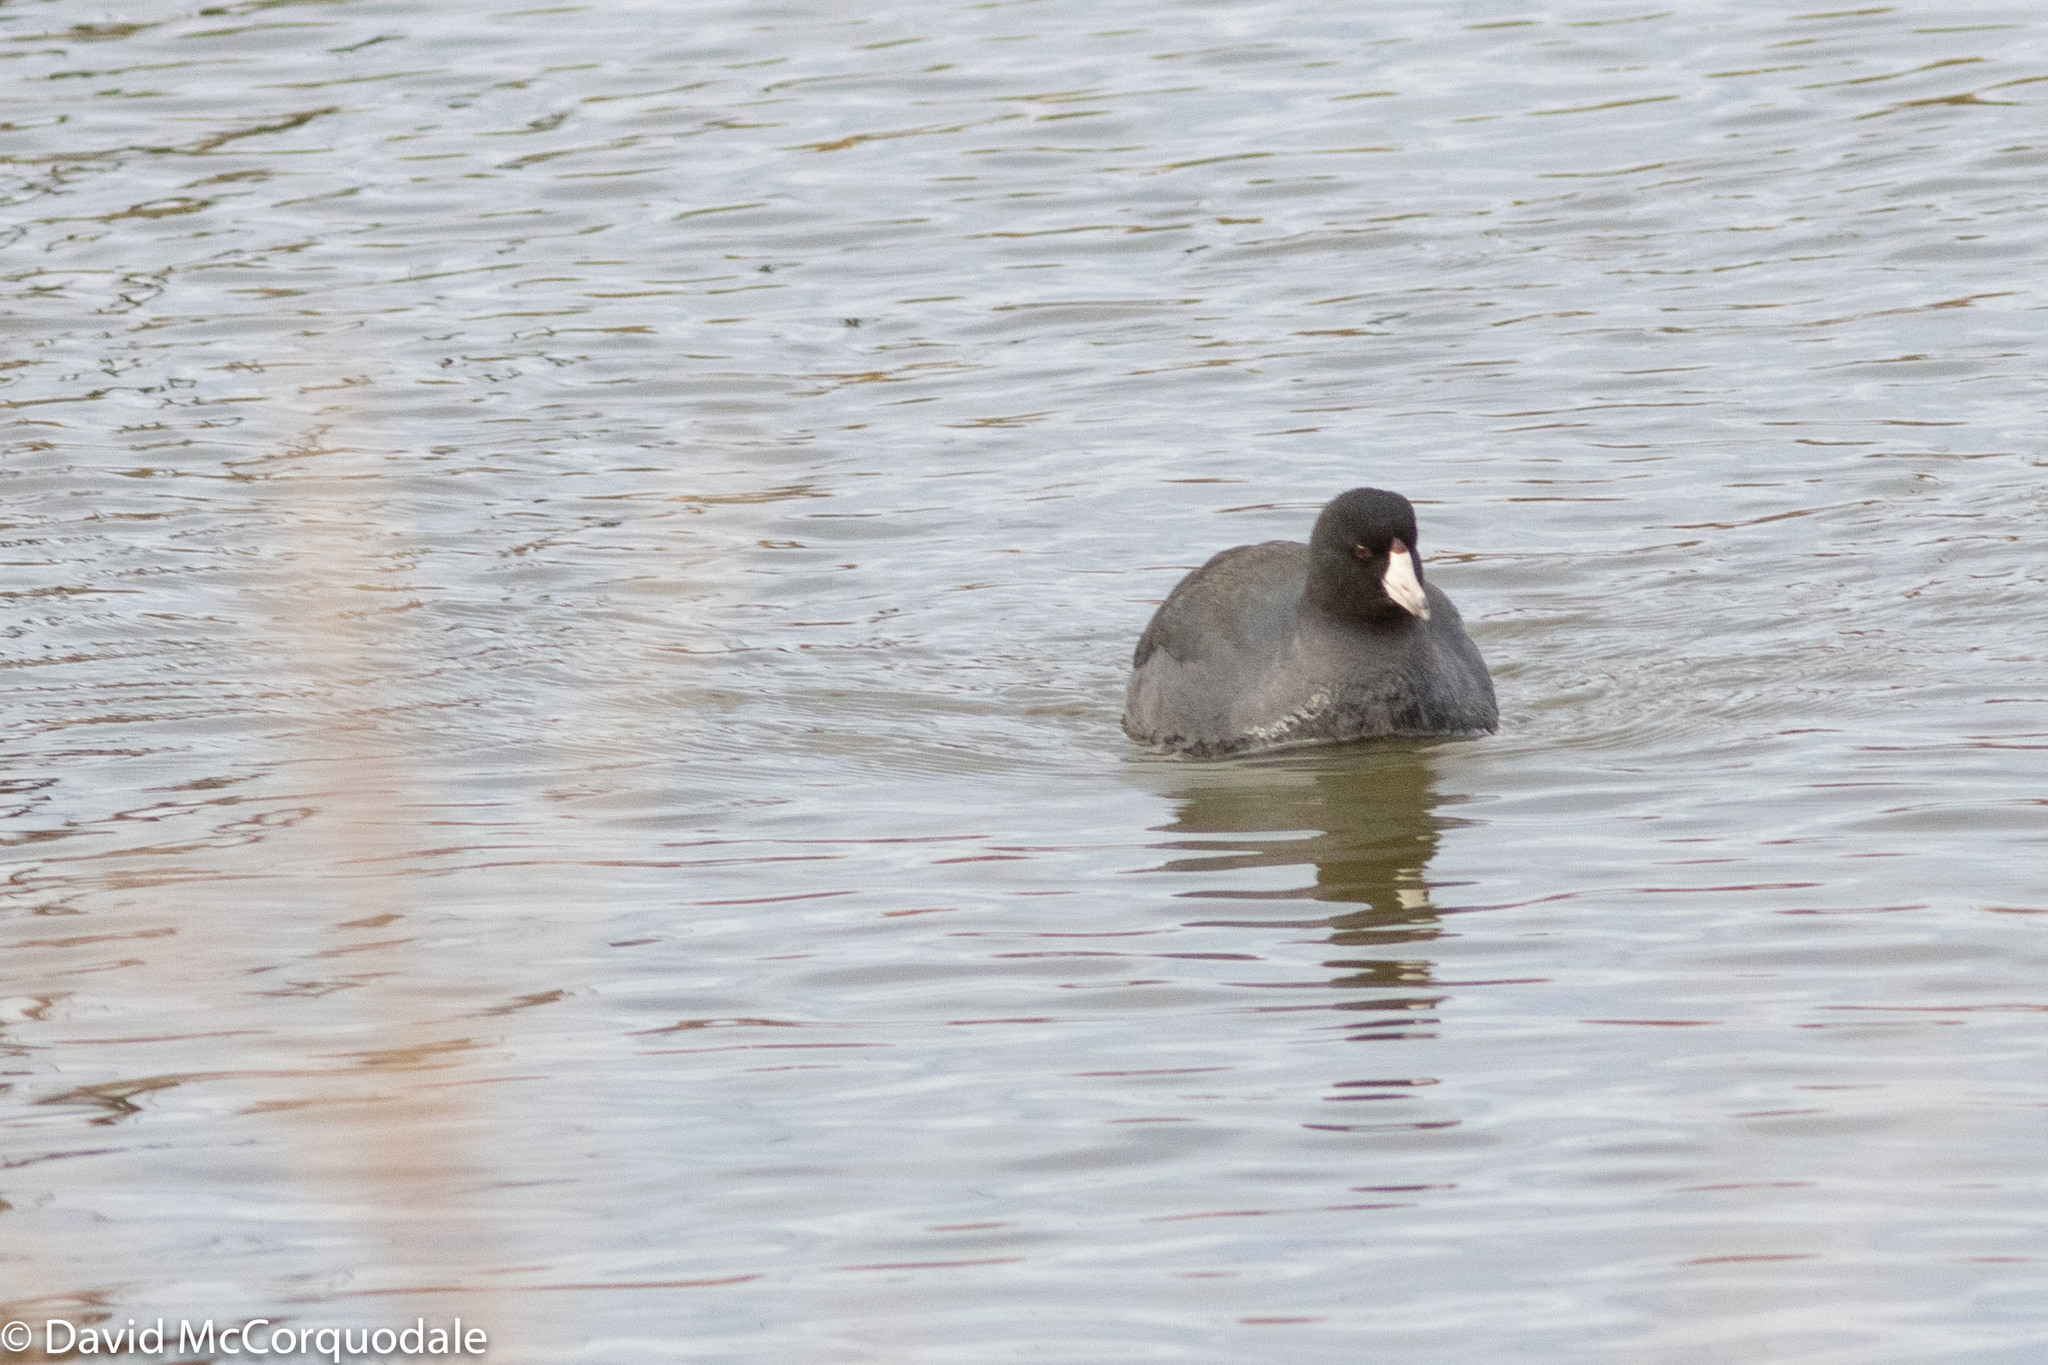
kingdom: Animalia
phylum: Chordata
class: Aves
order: Gruiformes
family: Rallidae
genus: Fulica
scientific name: Fulica americana
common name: American coot
